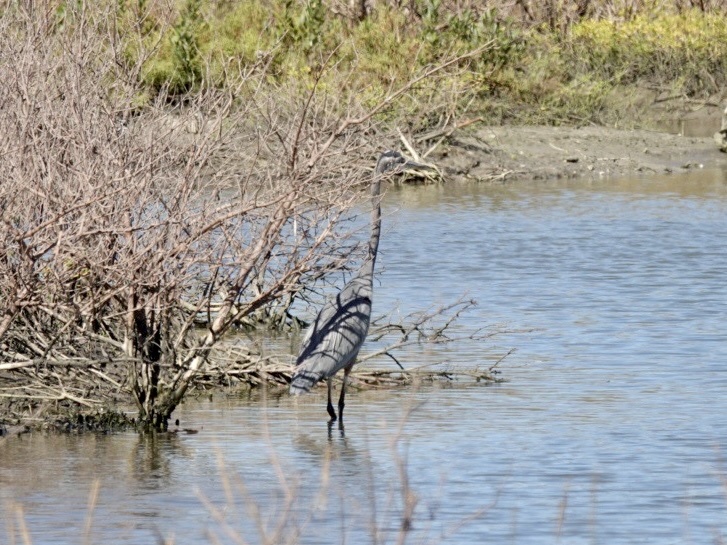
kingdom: Animalia
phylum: Chordata
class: Aves
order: Pelecaniformes
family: Ardeidae
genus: Ardea
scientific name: Ardea herodias
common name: Great blue heron
